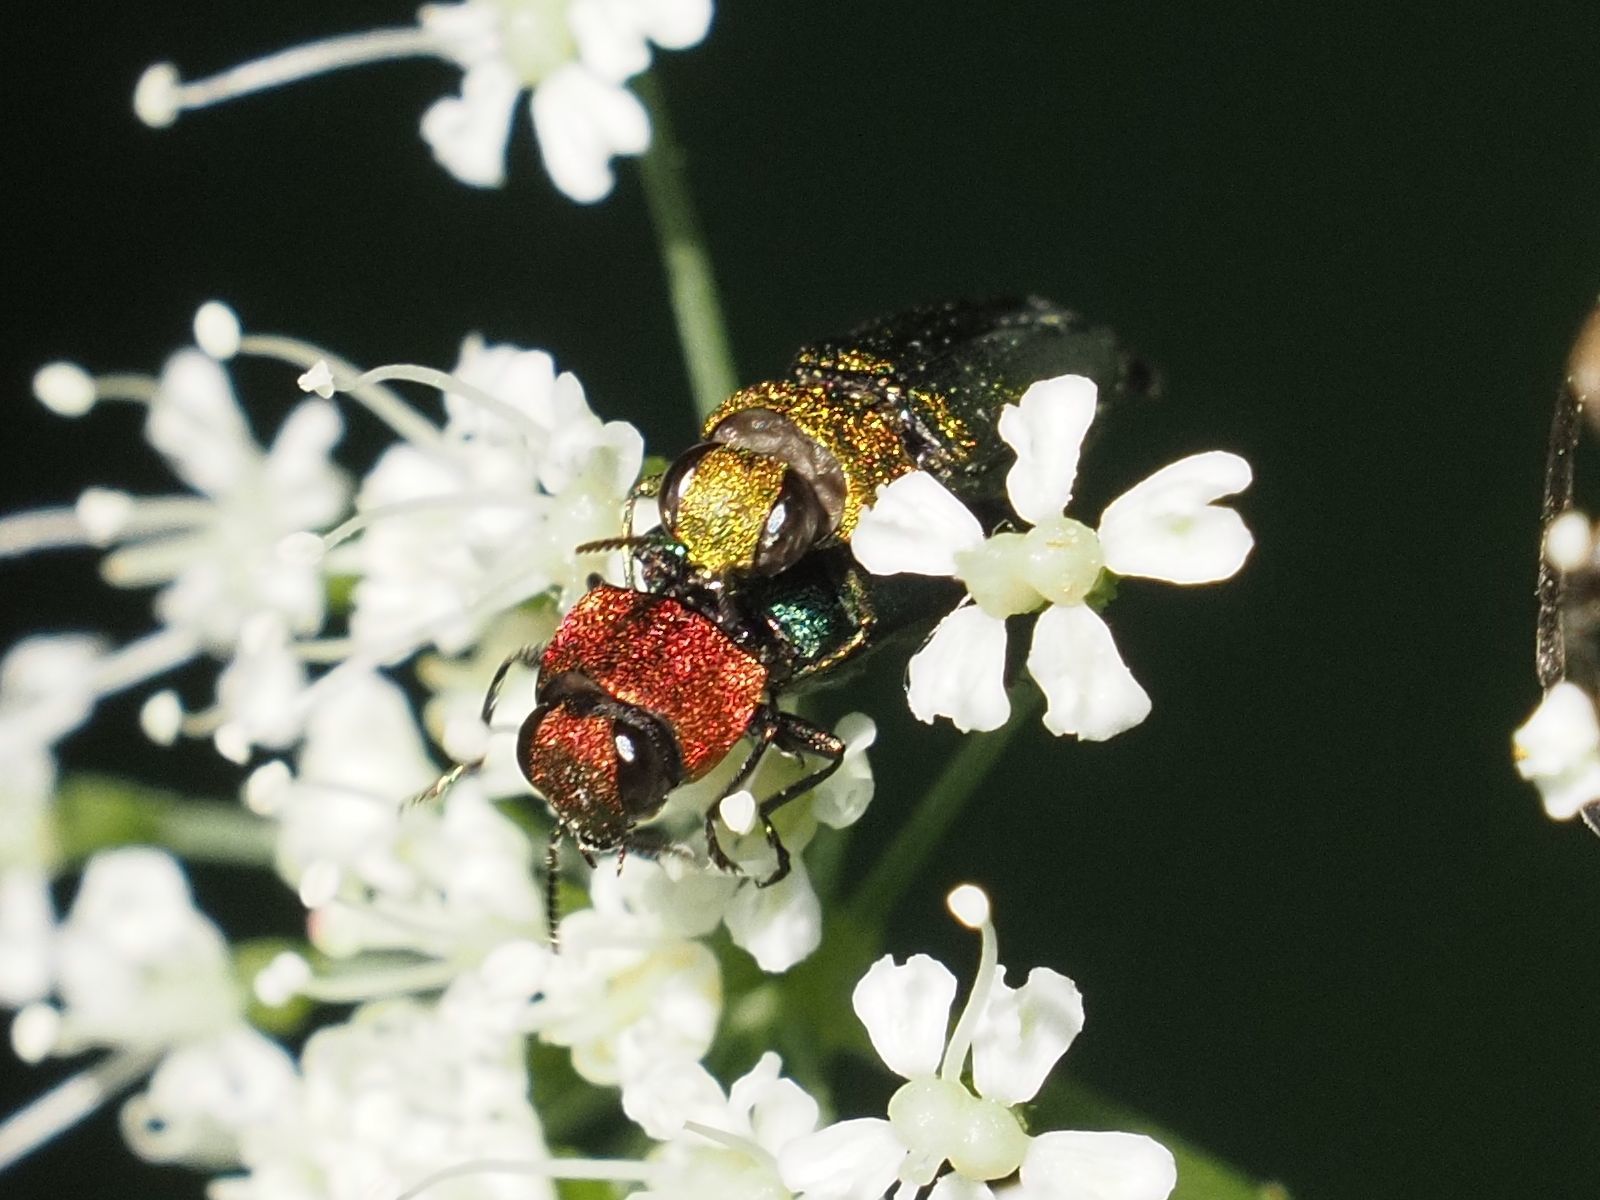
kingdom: Animalia
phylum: Arthropoda
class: Insecta
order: Coleoptera
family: Buprestidae
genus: Anthaxia
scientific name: Anthaxia nitidula
